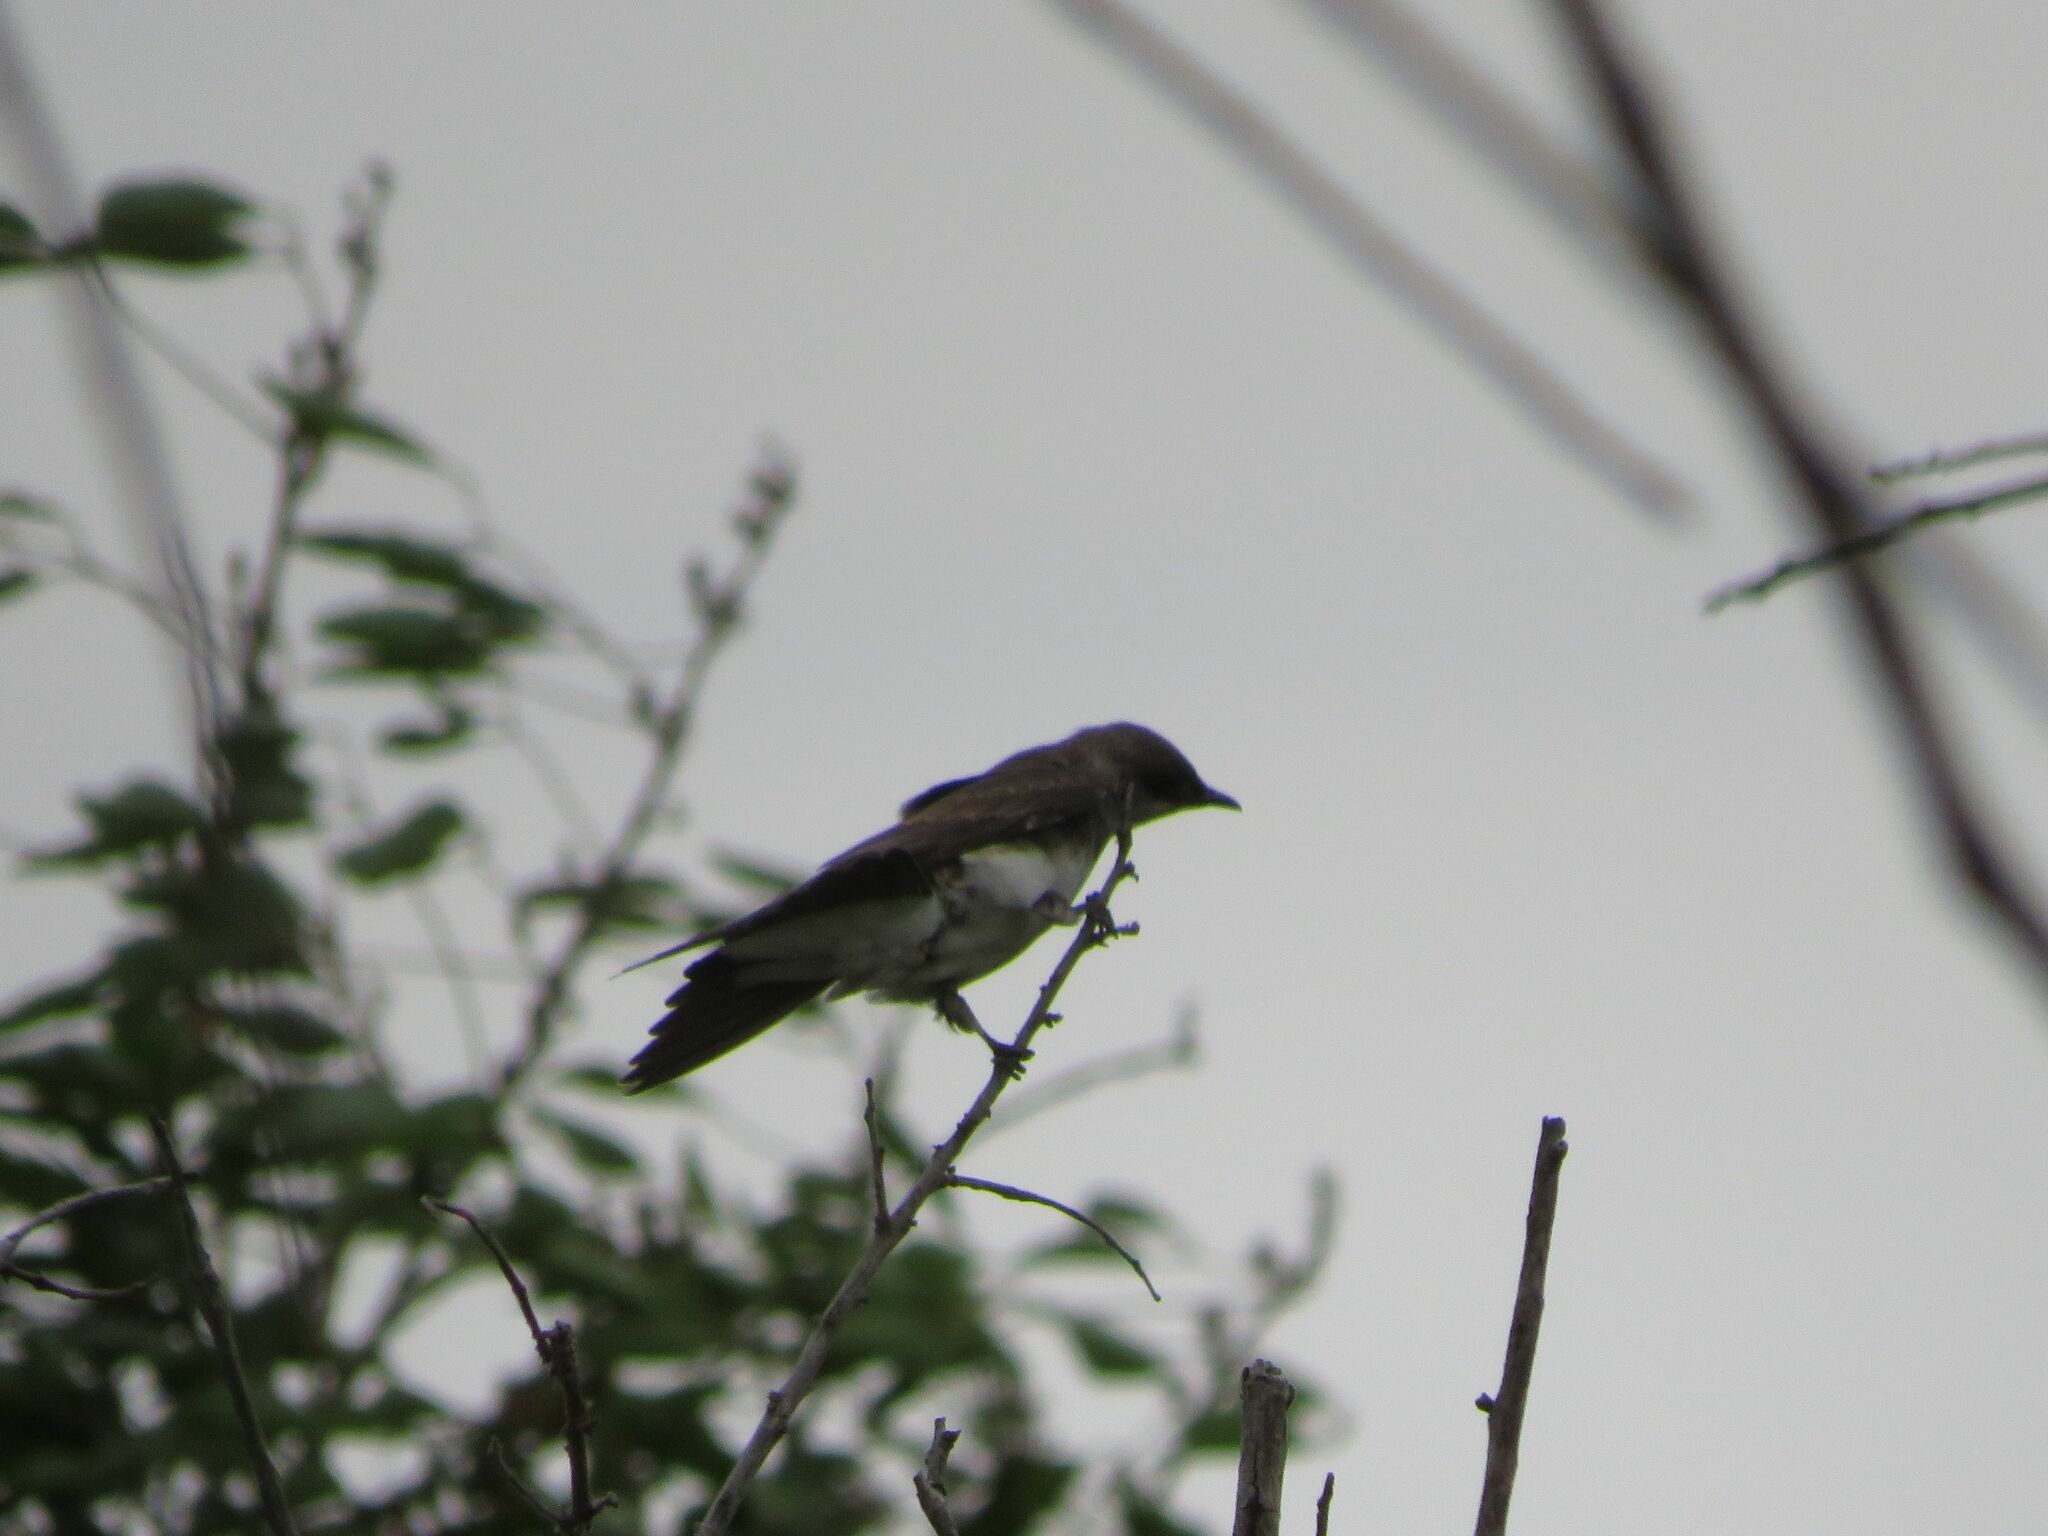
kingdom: Animalia
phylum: Chordata
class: Aves
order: Passeriformes
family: Hirundinidae
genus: Progne
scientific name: Progne tapera
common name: Brown-chested martin
